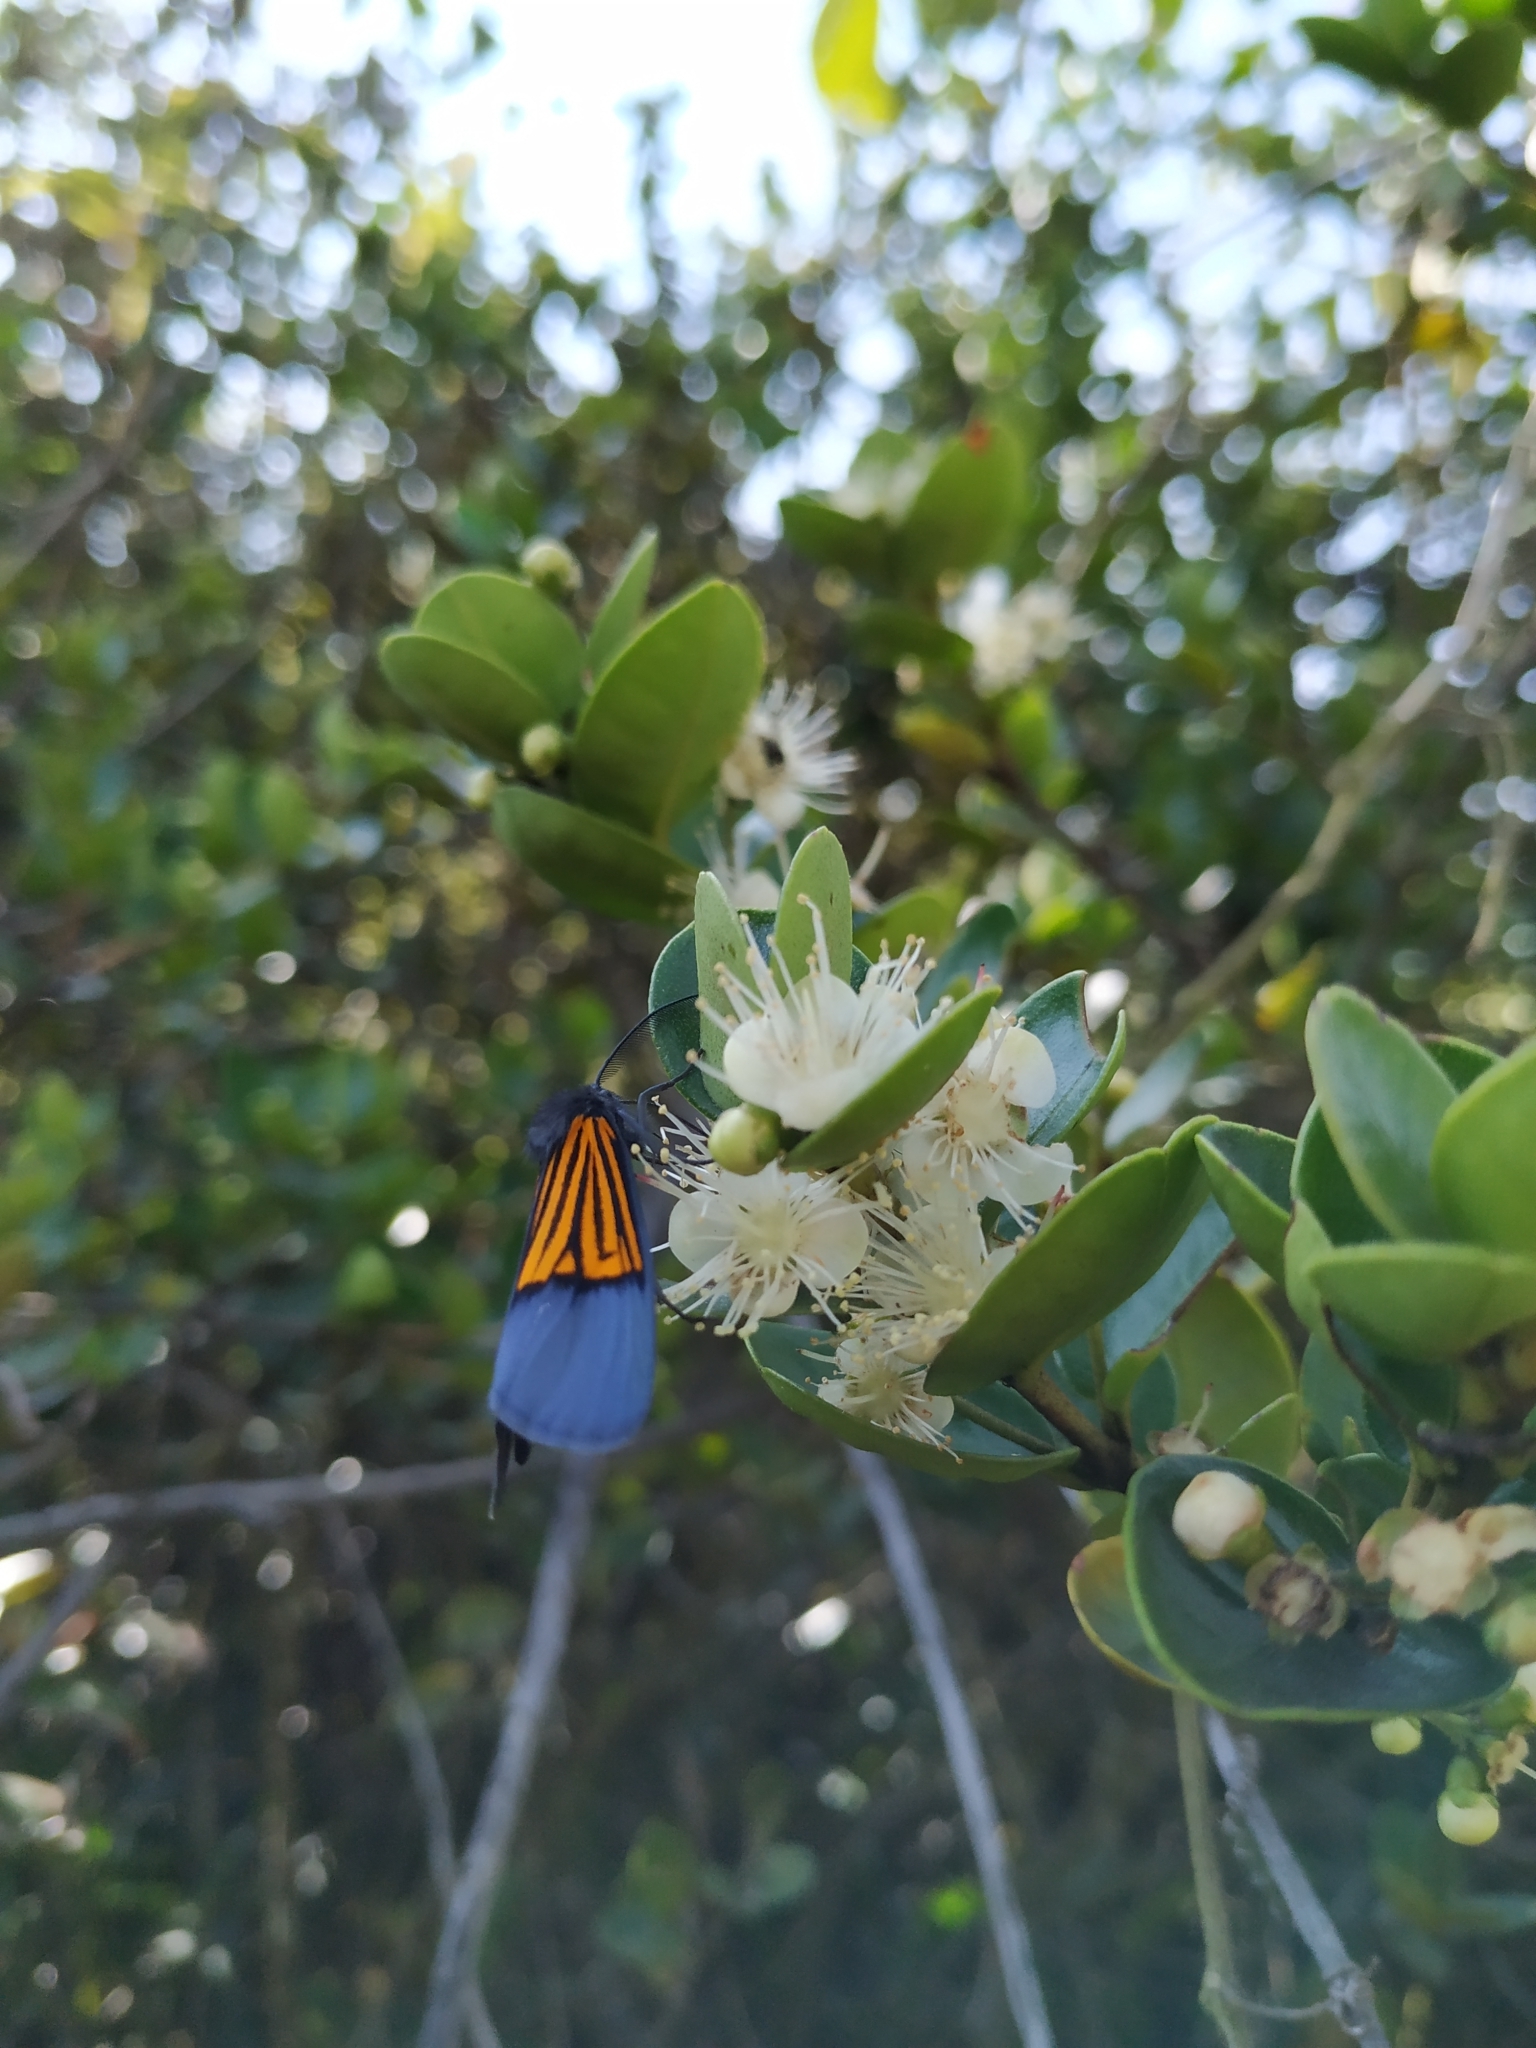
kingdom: Animalia
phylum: Arthropoda
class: Insecta
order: Lepidoptera
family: Notodontidae
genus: Scea
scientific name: Scea
